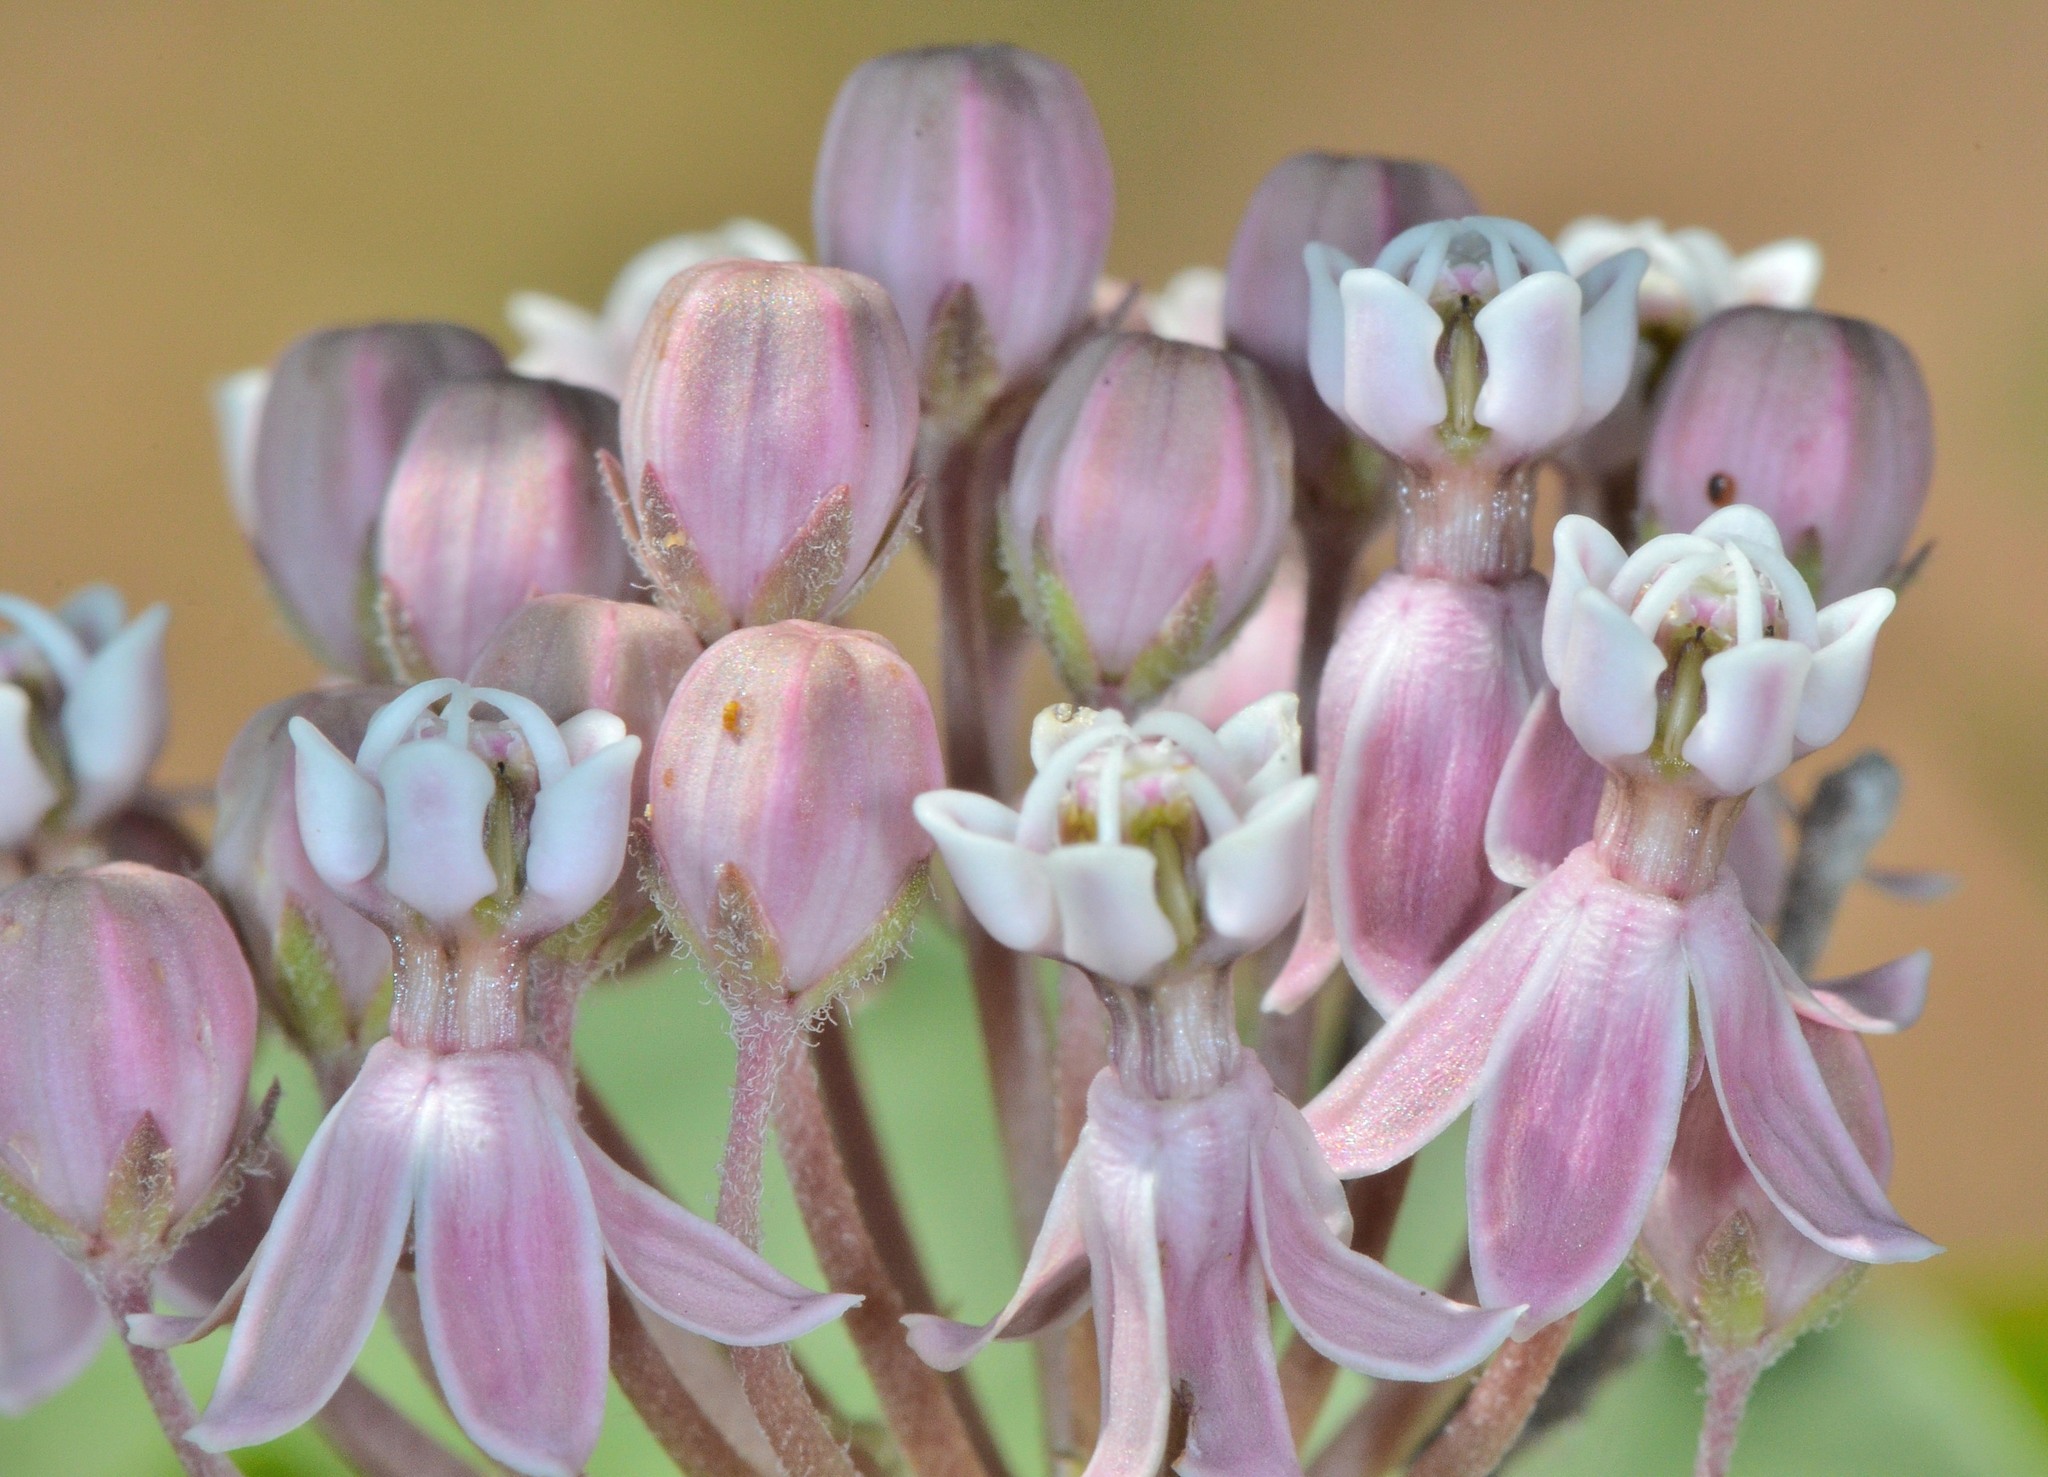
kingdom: Plantae
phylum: Tracheophyta
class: Magnoliopsida
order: Gentianales
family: Apocynaceae
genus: Asclepias
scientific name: Asclepias fascicularis
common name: Mexican milkweed
